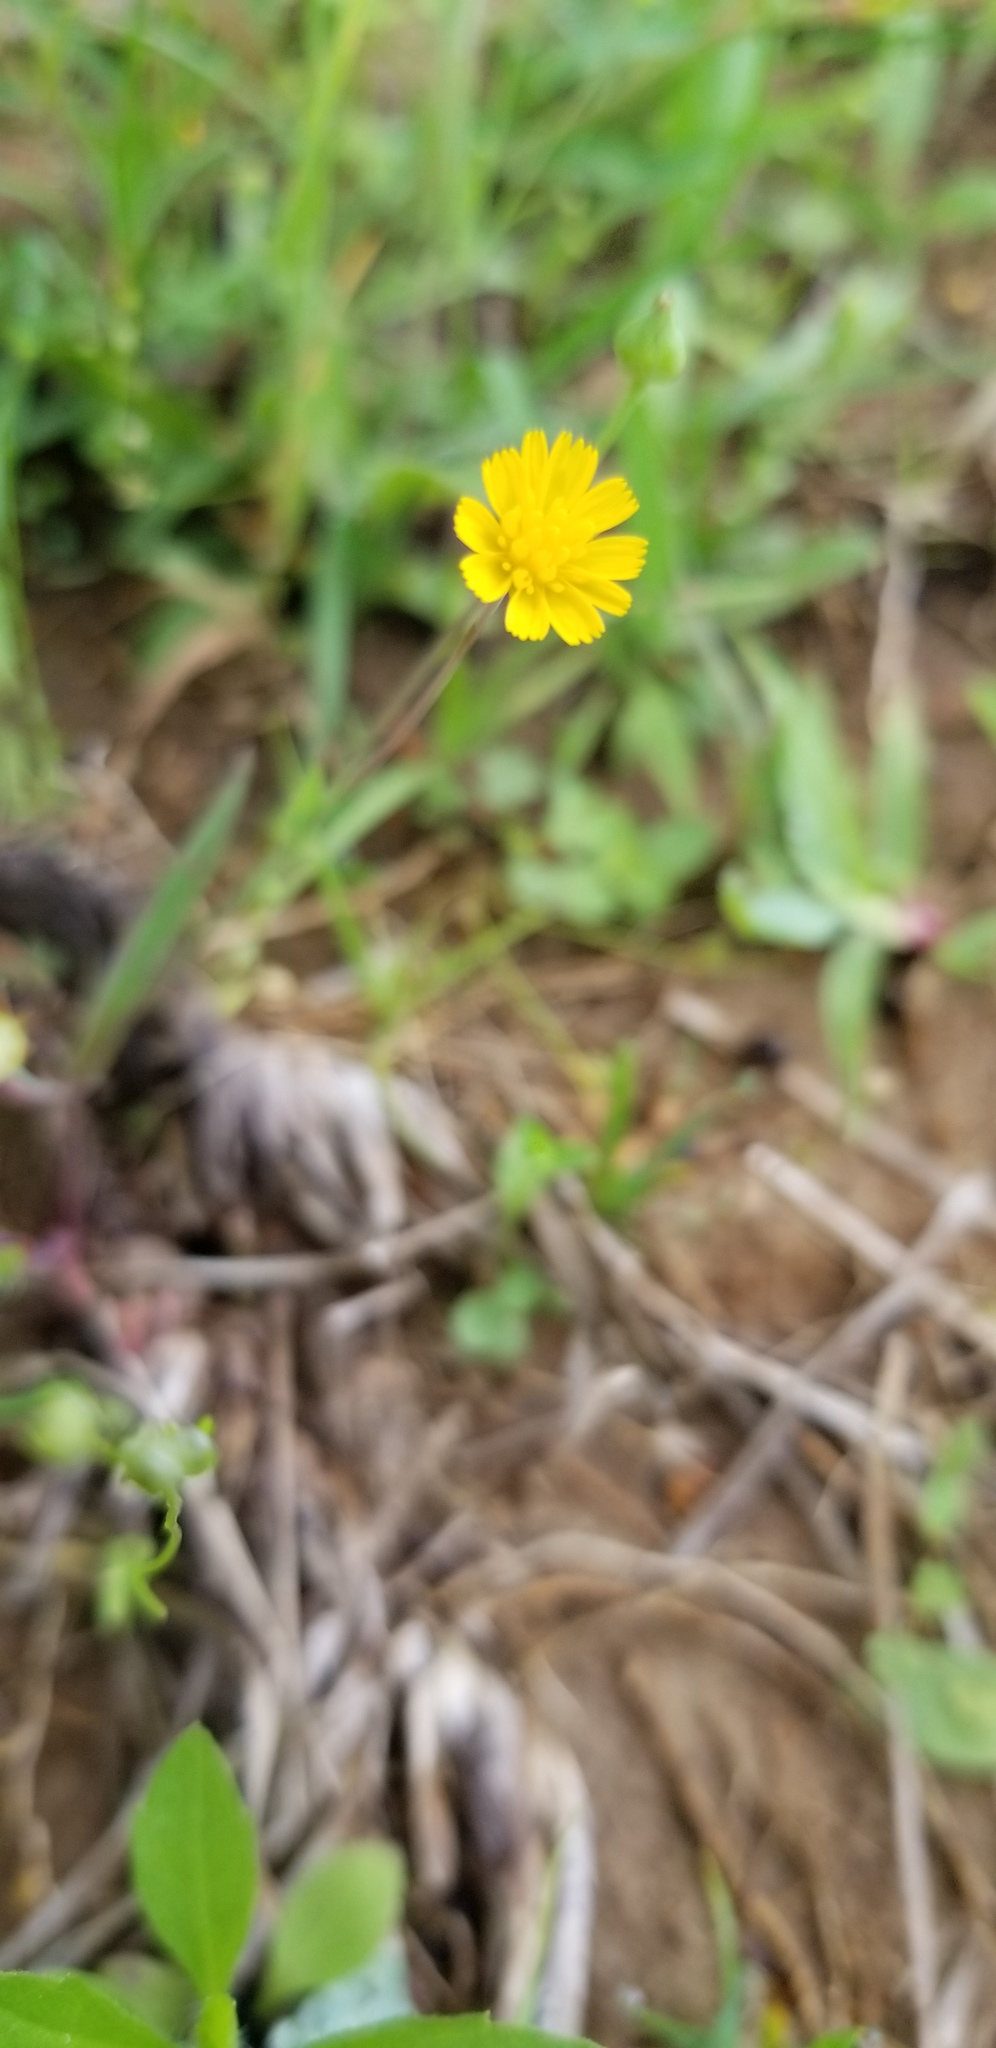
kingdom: Plantae
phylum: Tracheophyta
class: Magnoliopsida
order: Asterales
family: Asteraceae
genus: Krigia
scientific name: Krigia cespitosa
